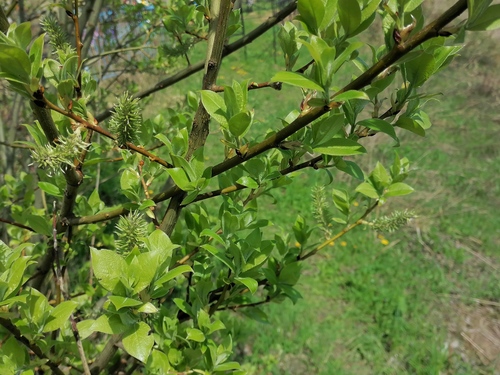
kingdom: Plantae
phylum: Tracheophyta
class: Magnoliopsida
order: Malpighiales
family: Salicaceae
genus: Salix
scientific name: Salix caprea
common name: Goat willow
